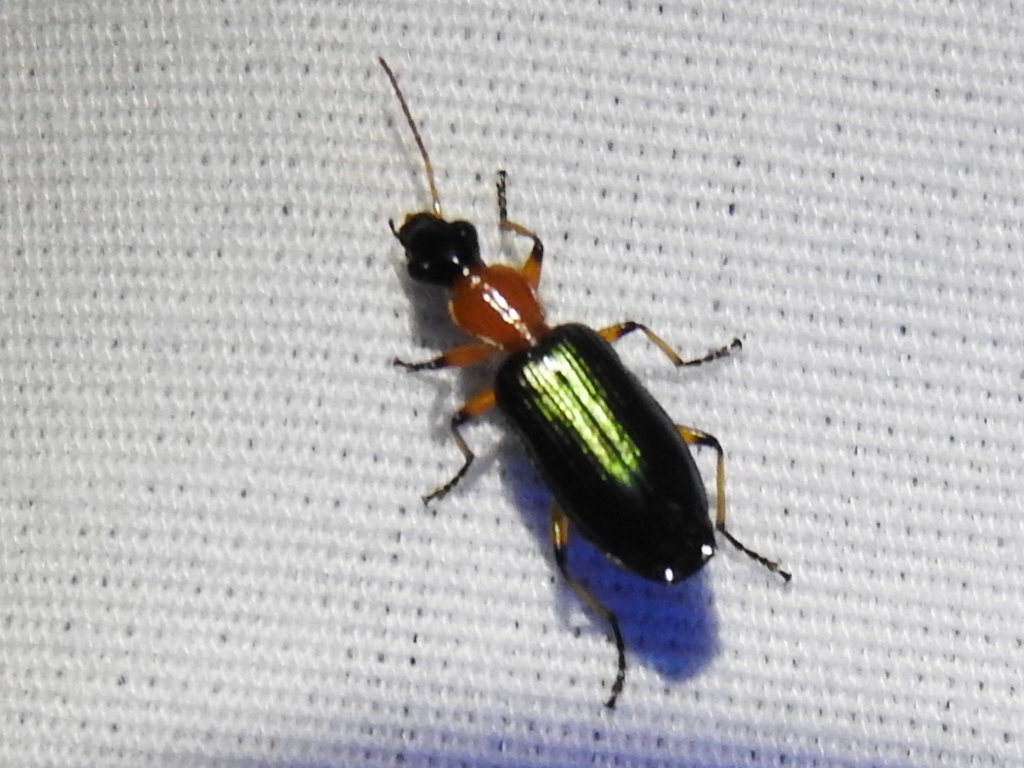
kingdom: Animalia
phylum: Arthropoda
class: Insecta
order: Coleoptera
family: Carabidae
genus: Calleida
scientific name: Calleida cordicollis
